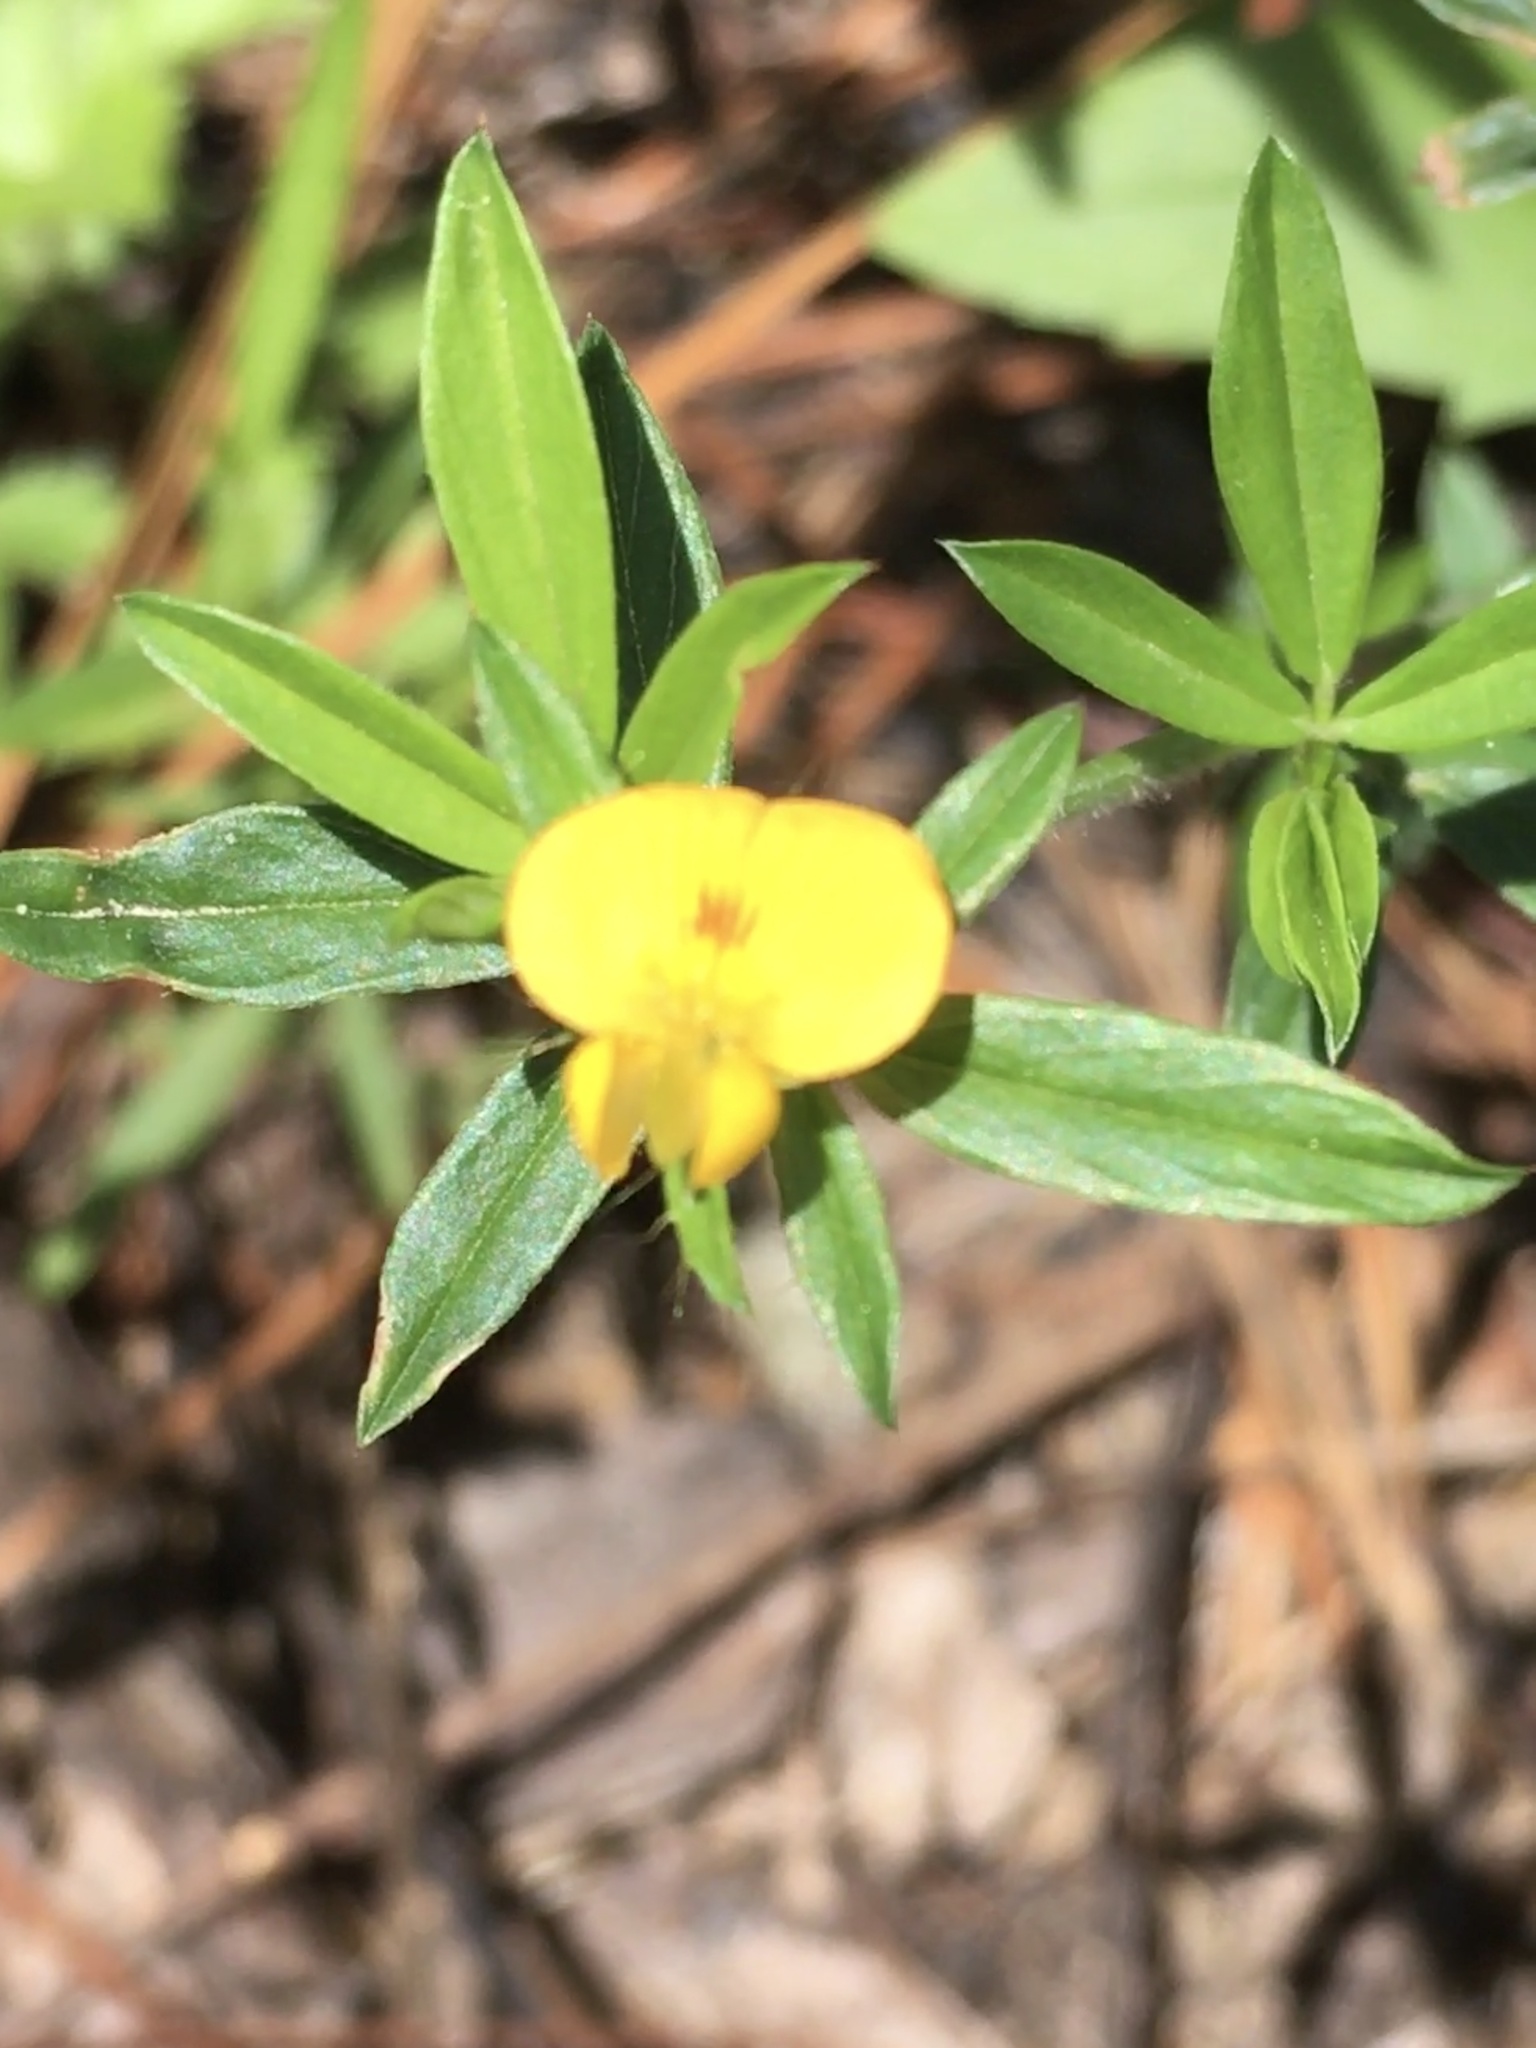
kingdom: Plantae
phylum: Tracheophyta
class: Magnoliopsida
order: Fabales
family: Fabaceae
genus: Stylosanthes
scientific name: Stylosanthes biflora
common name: Two-flower pencil-flower
